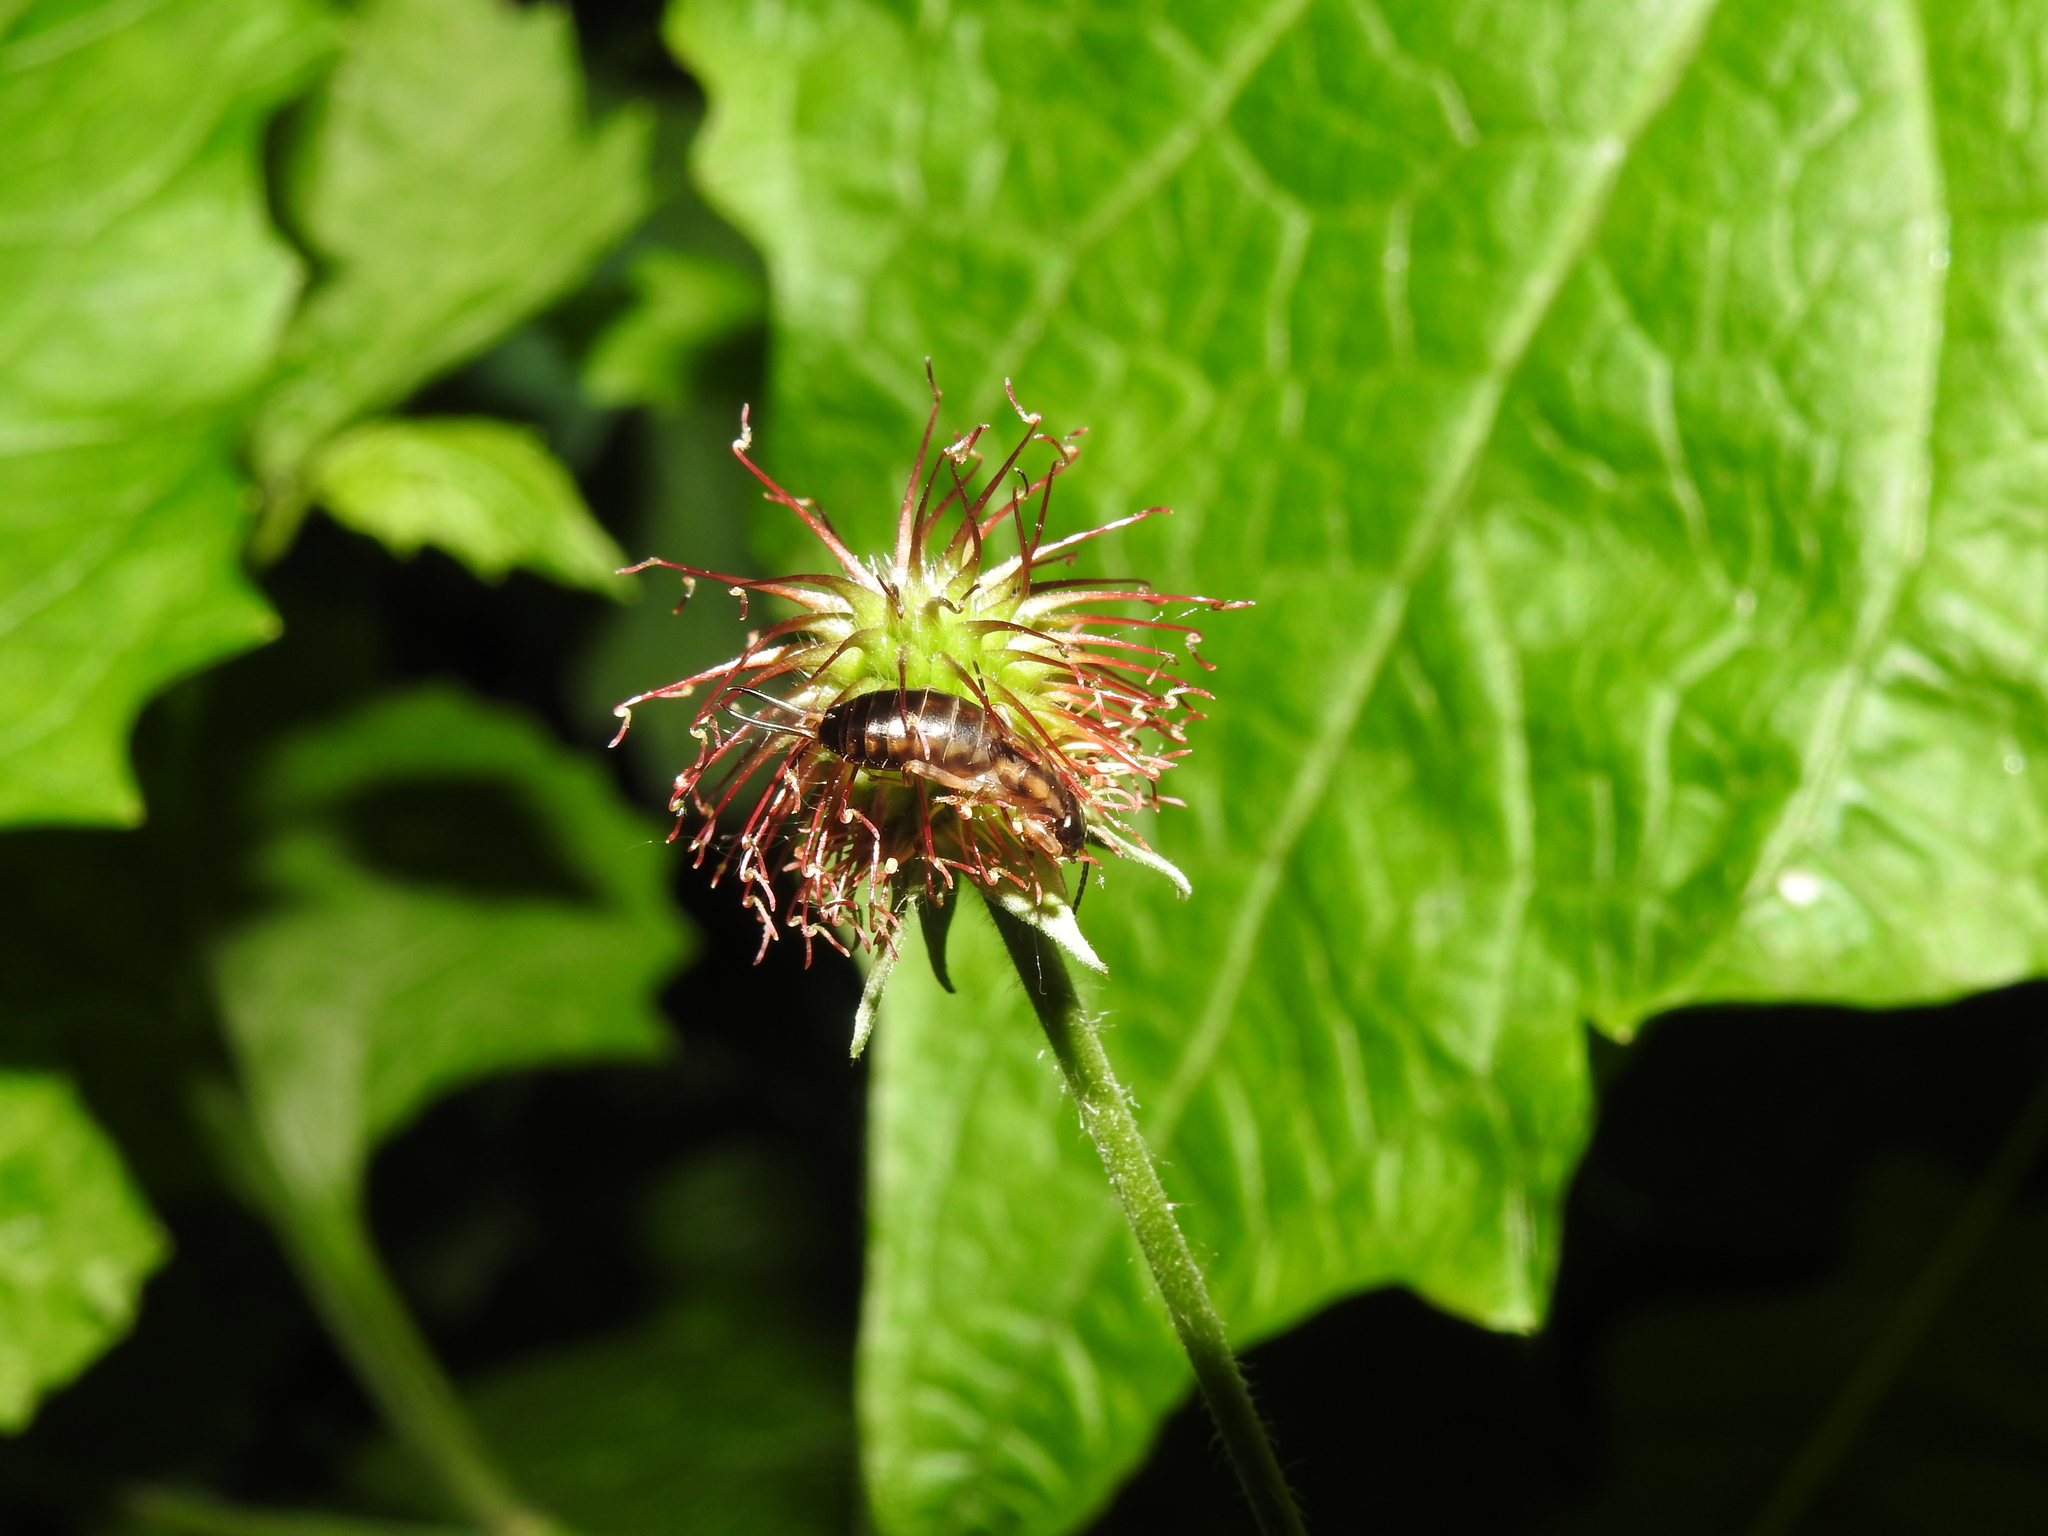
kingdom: Animalia
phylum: Arthropoda
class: Insecta
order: Dermaptera
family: Forficulidae
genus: Forficula
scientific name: Forficula
